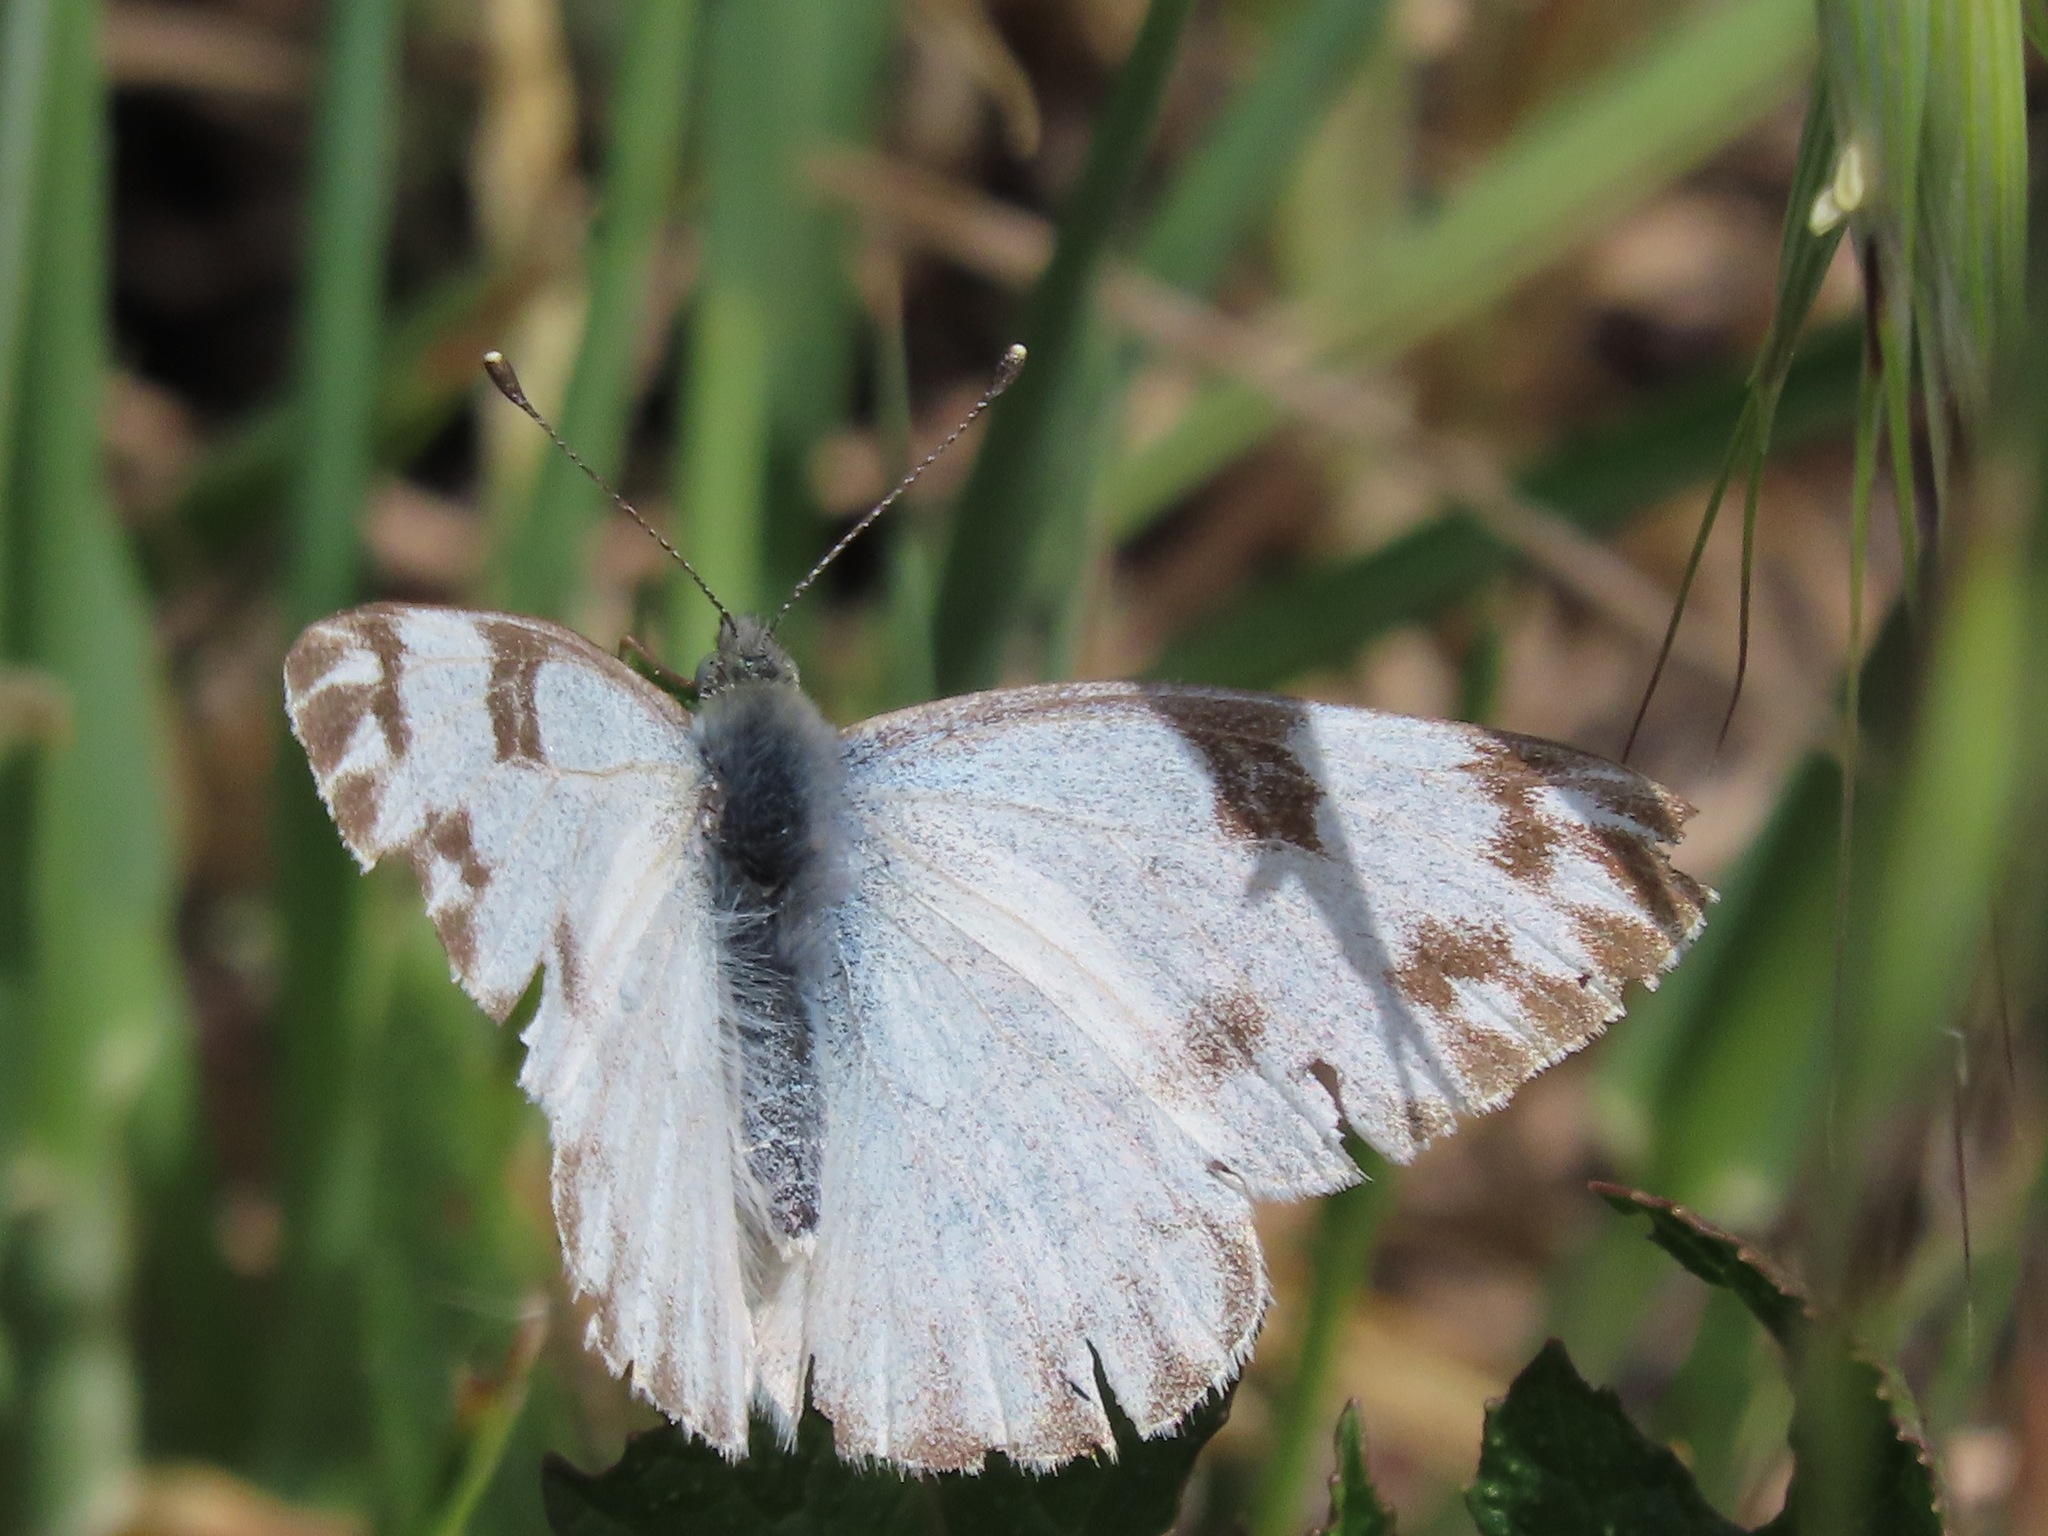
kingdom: Animalia
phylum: Arthropoda
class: Insecta
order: Lepidoptera
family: Pieridae
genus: Pontia
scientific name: Pontia protodice
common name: Checkered white
